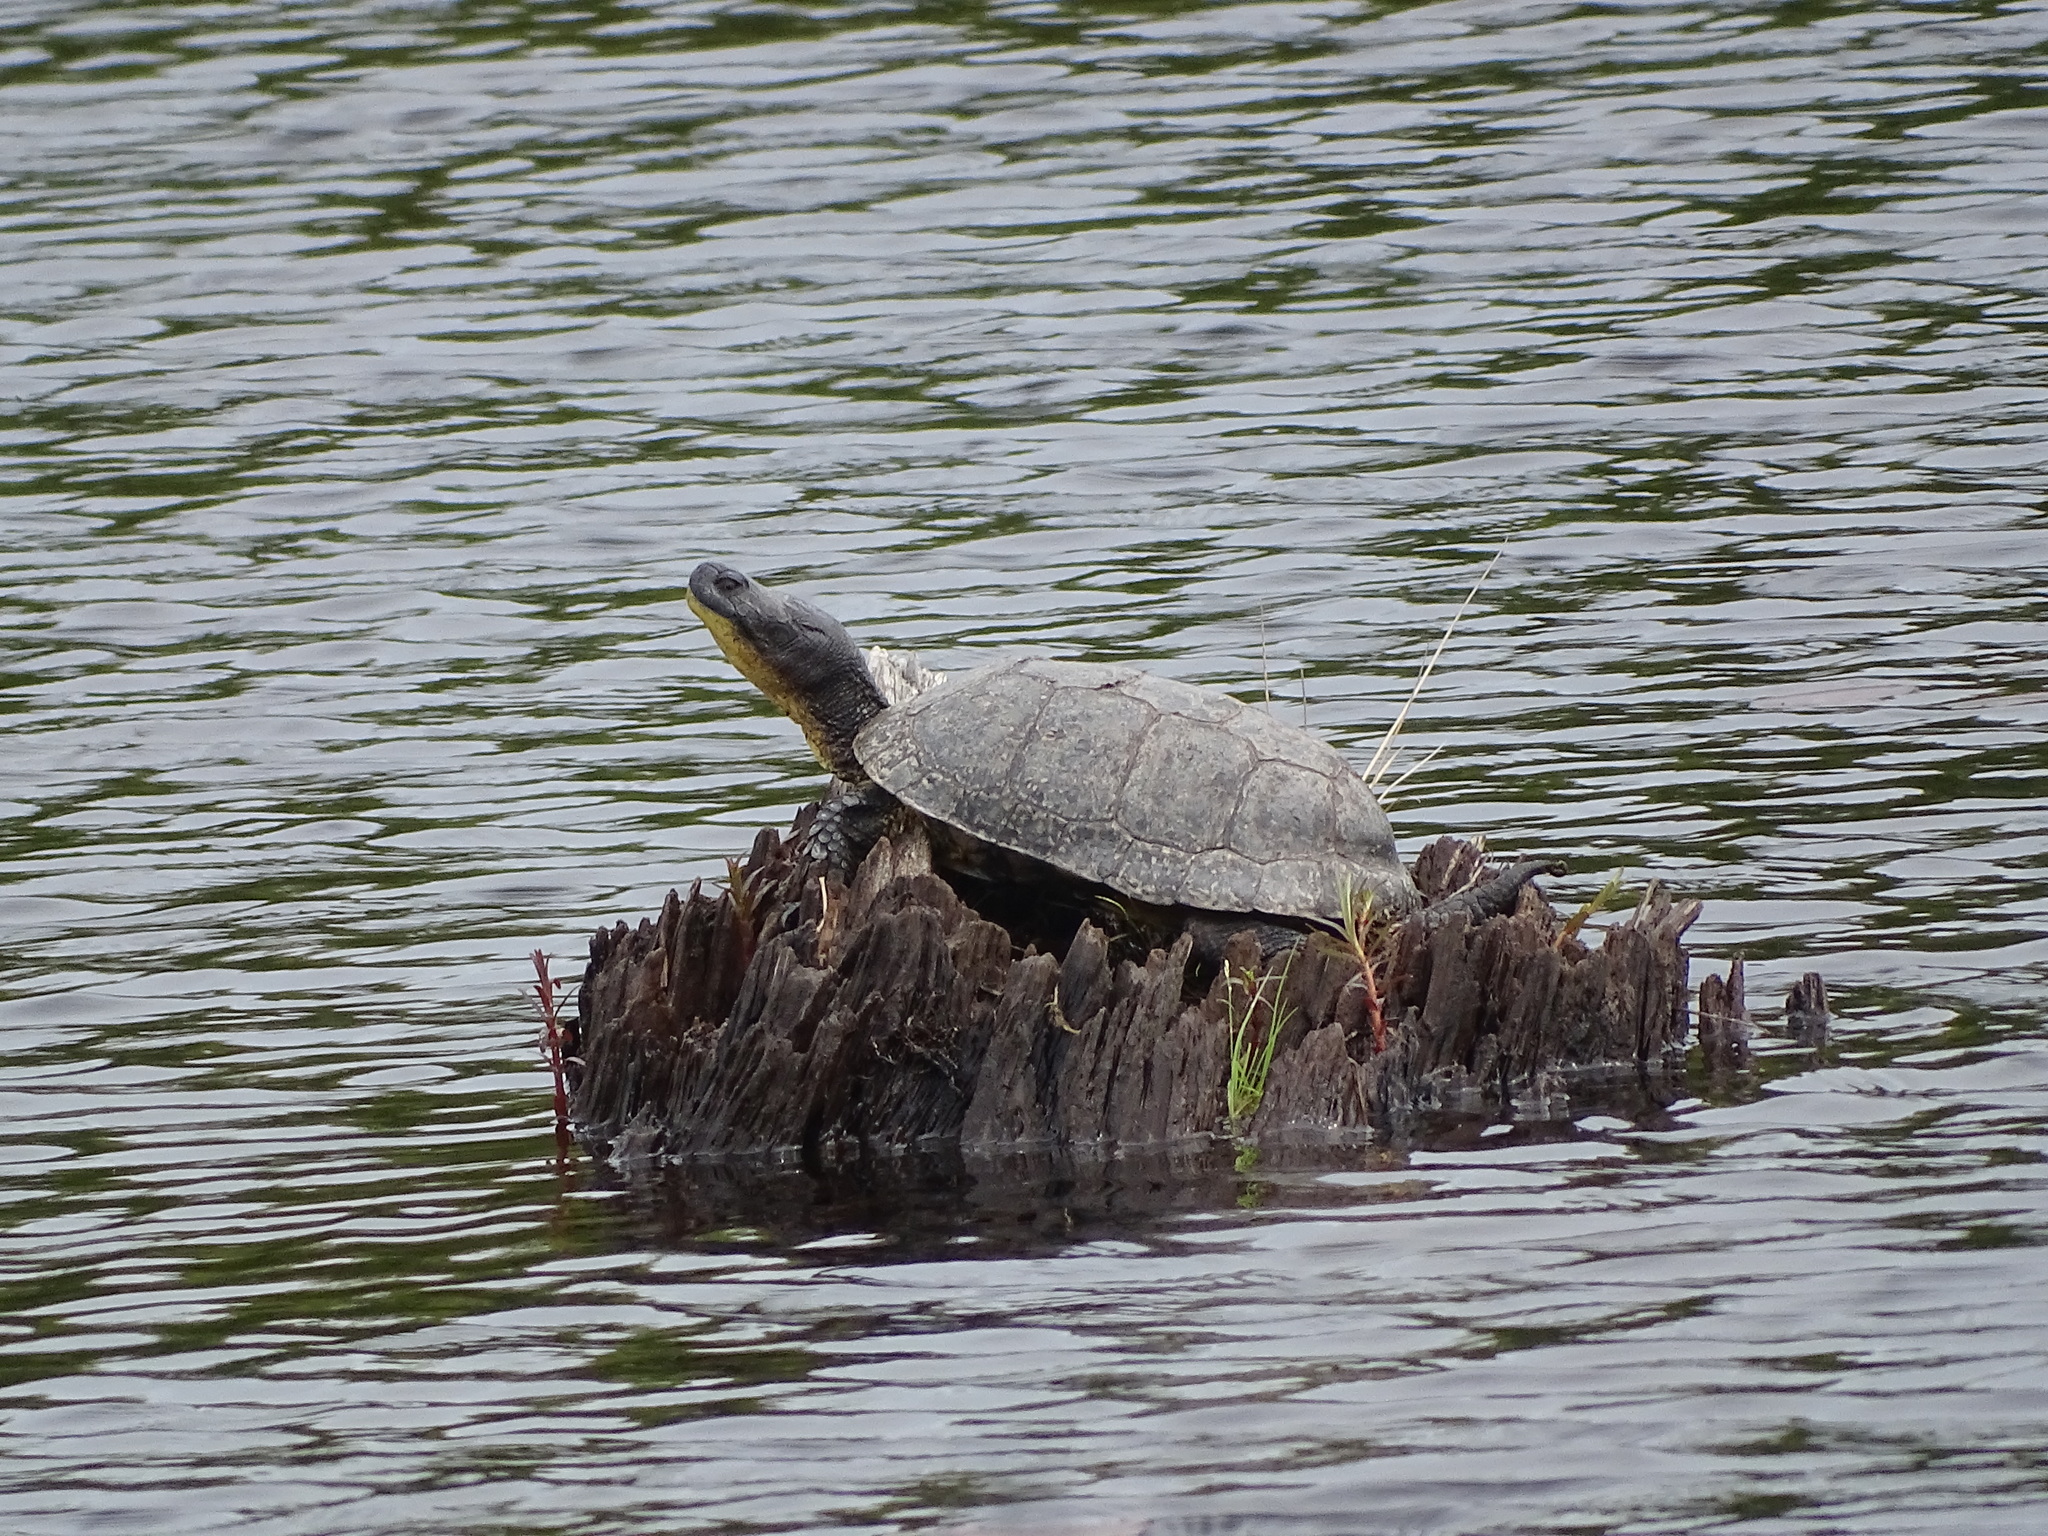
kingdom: Animalia
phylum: Chordata
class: Testudines
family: Emydidae
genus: Emys
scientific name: Emys blandingii
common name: Blanding's turtle
